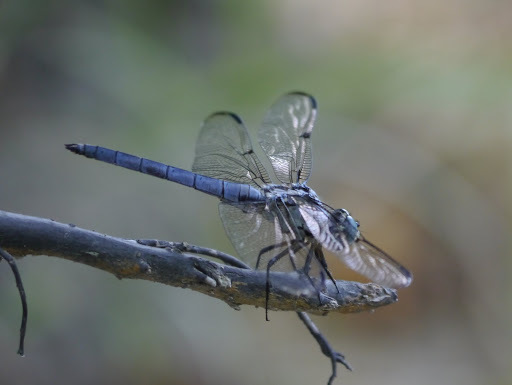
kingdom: Animalia
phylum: Arthropoda
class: Insecta
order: Odonata
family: Libellulidae
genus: Libellula
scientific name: Libellula vibrans
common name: Great blue skimmer
